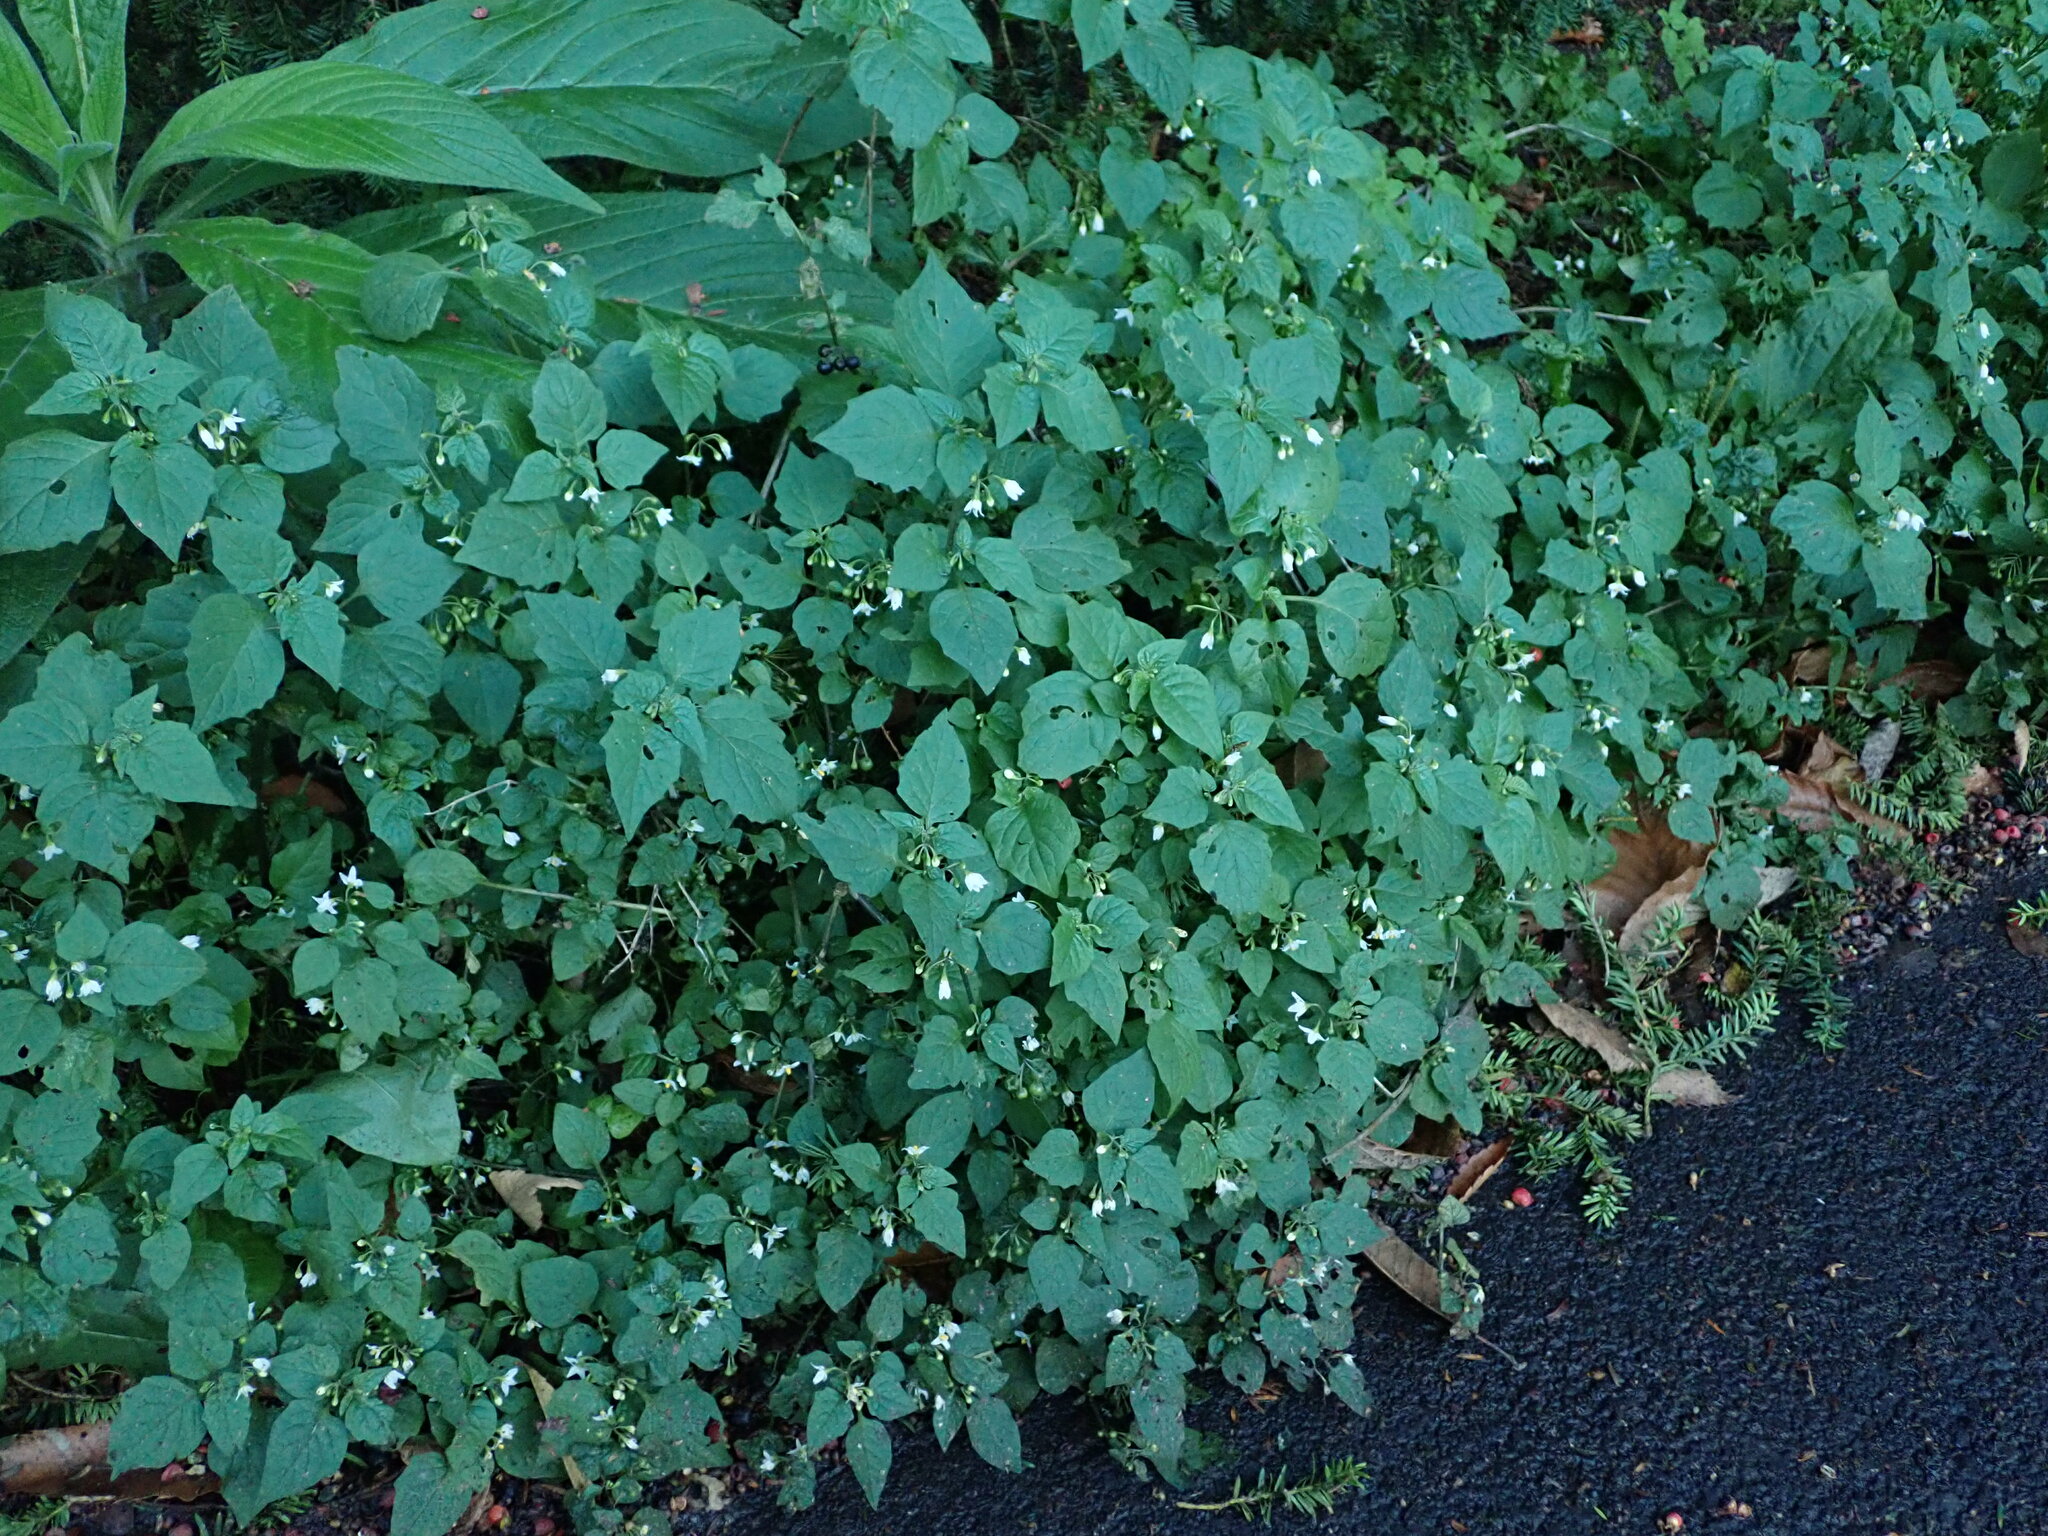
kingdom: Plantae
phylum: Tracheophyta
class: Magnoliopsida
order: Solanales
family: Solanaceae
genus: Solanum
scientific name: Solanum nigrum
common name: Black nightshade
